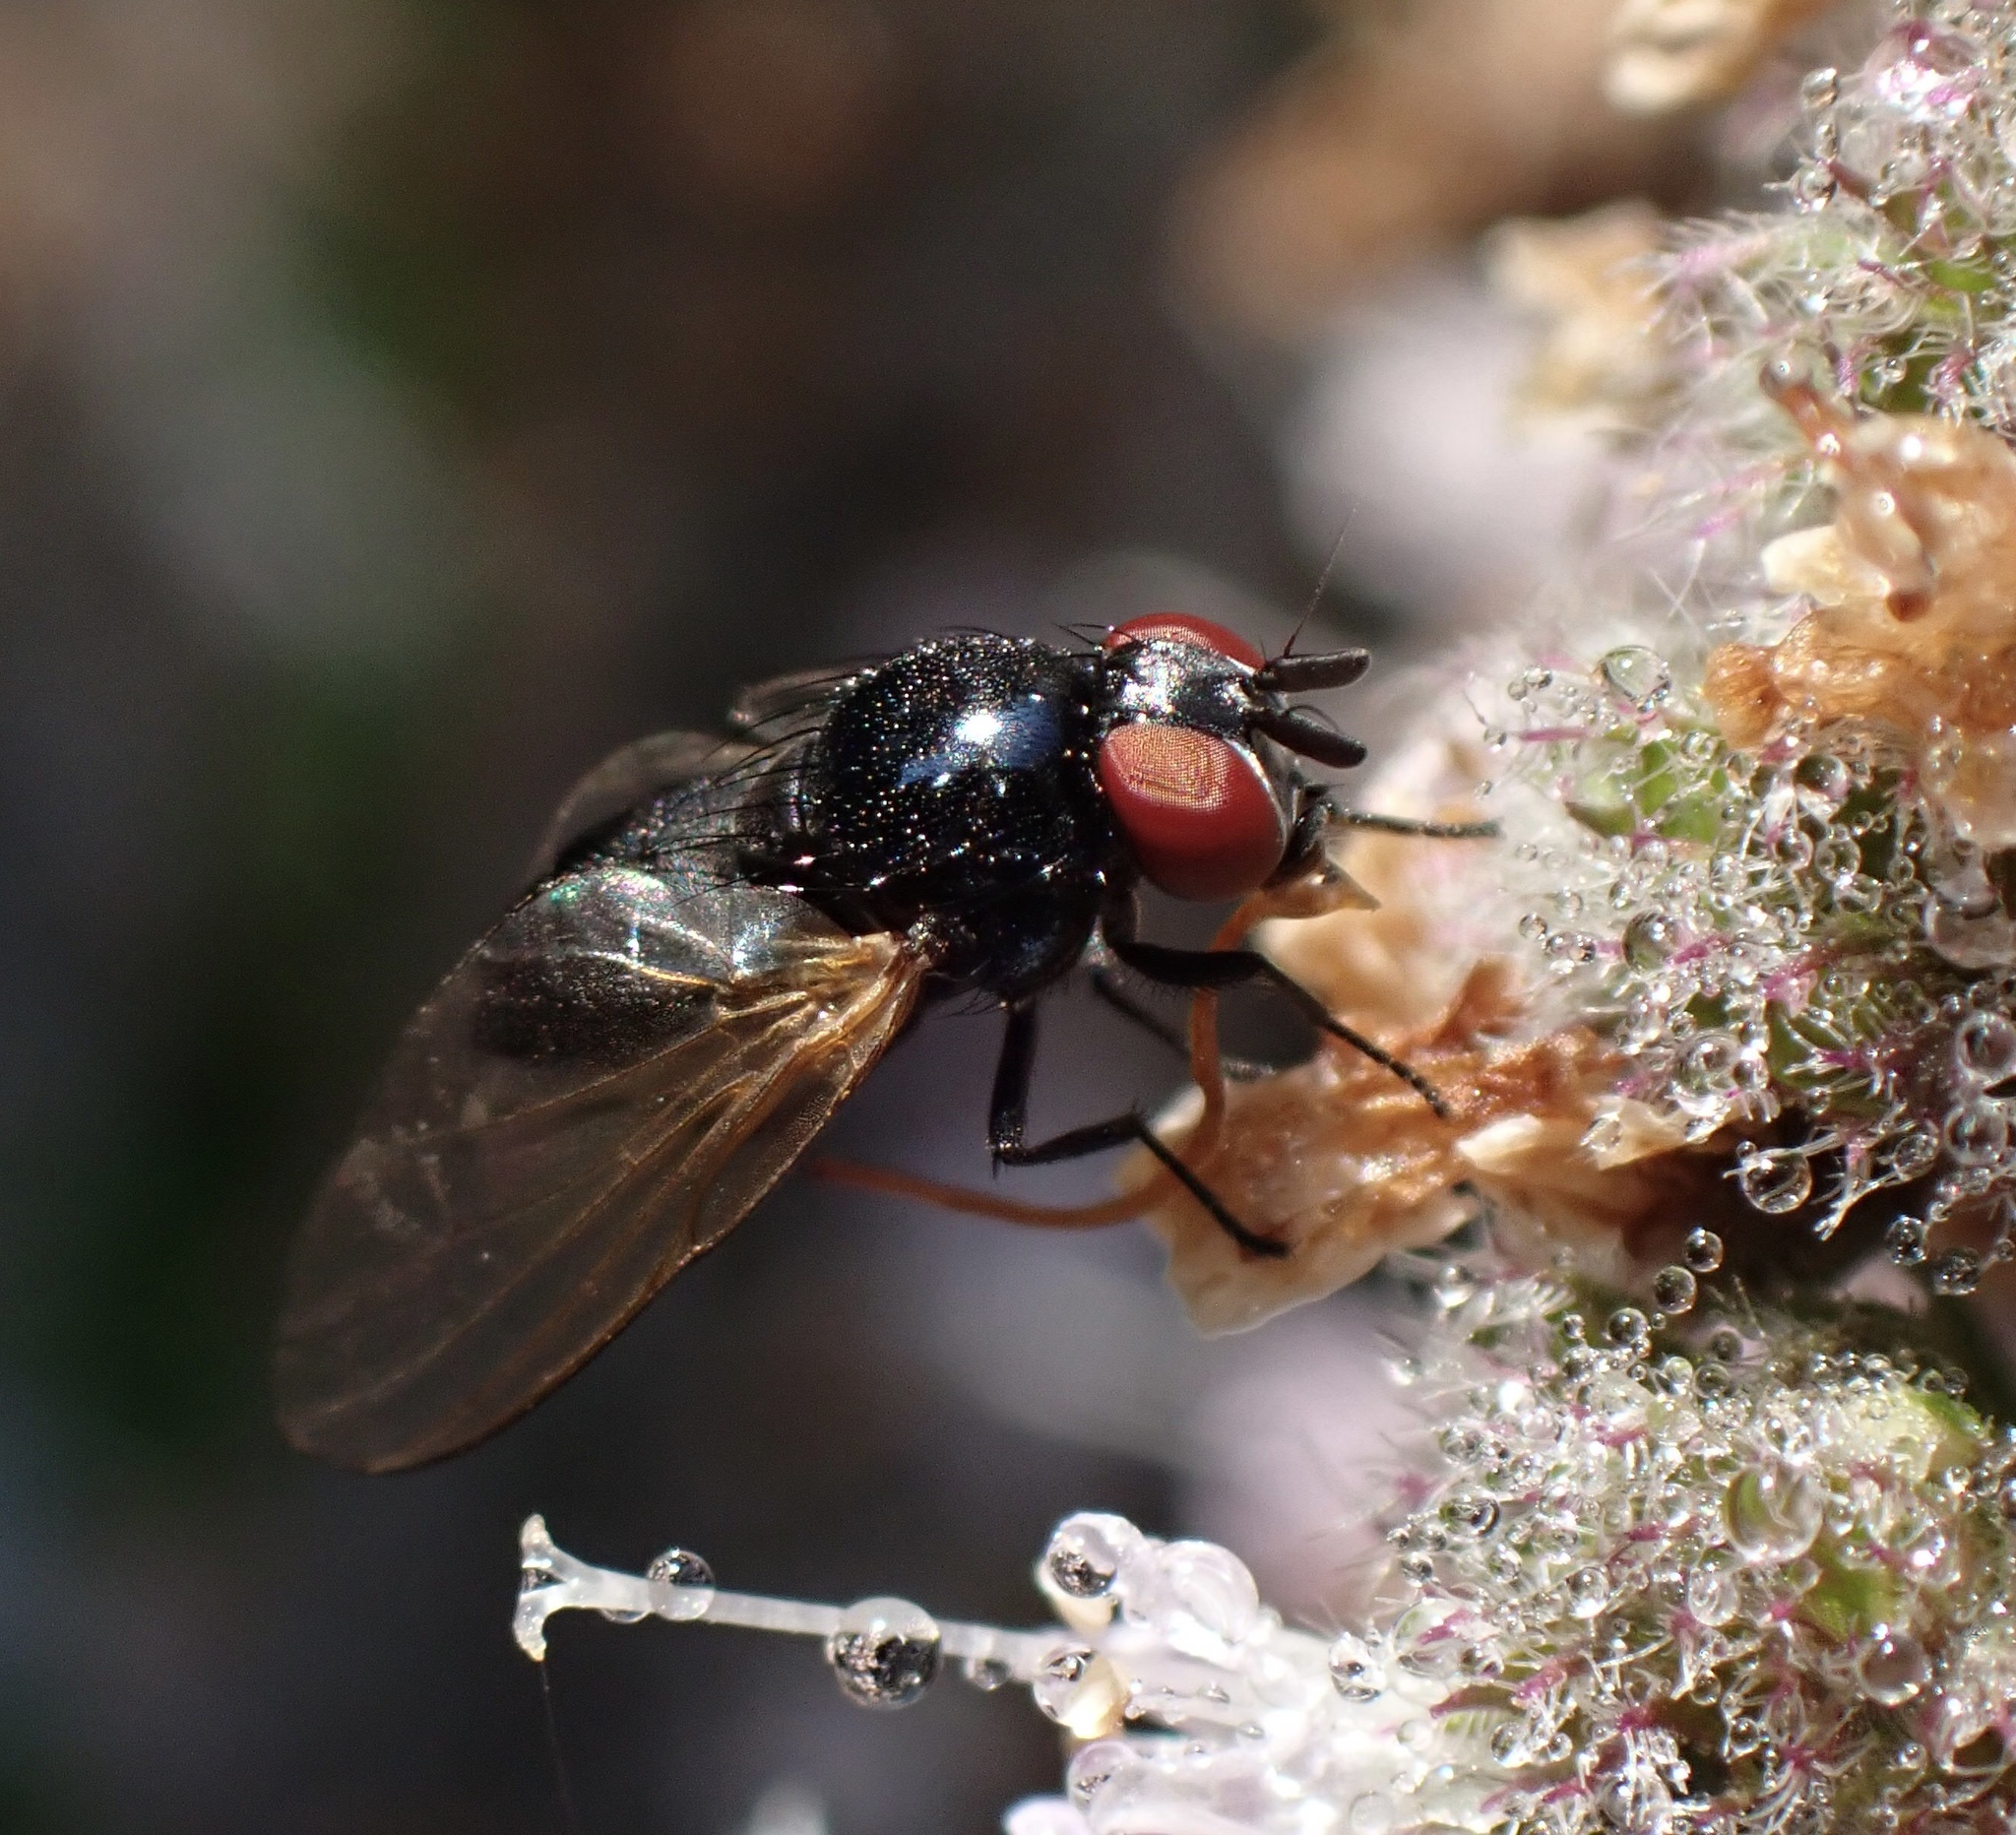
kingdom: Animalia
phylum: Arthropoda
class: Insecta
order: Diptera
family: Lonchaeidae
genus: Silba
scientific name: Silba fumosa
